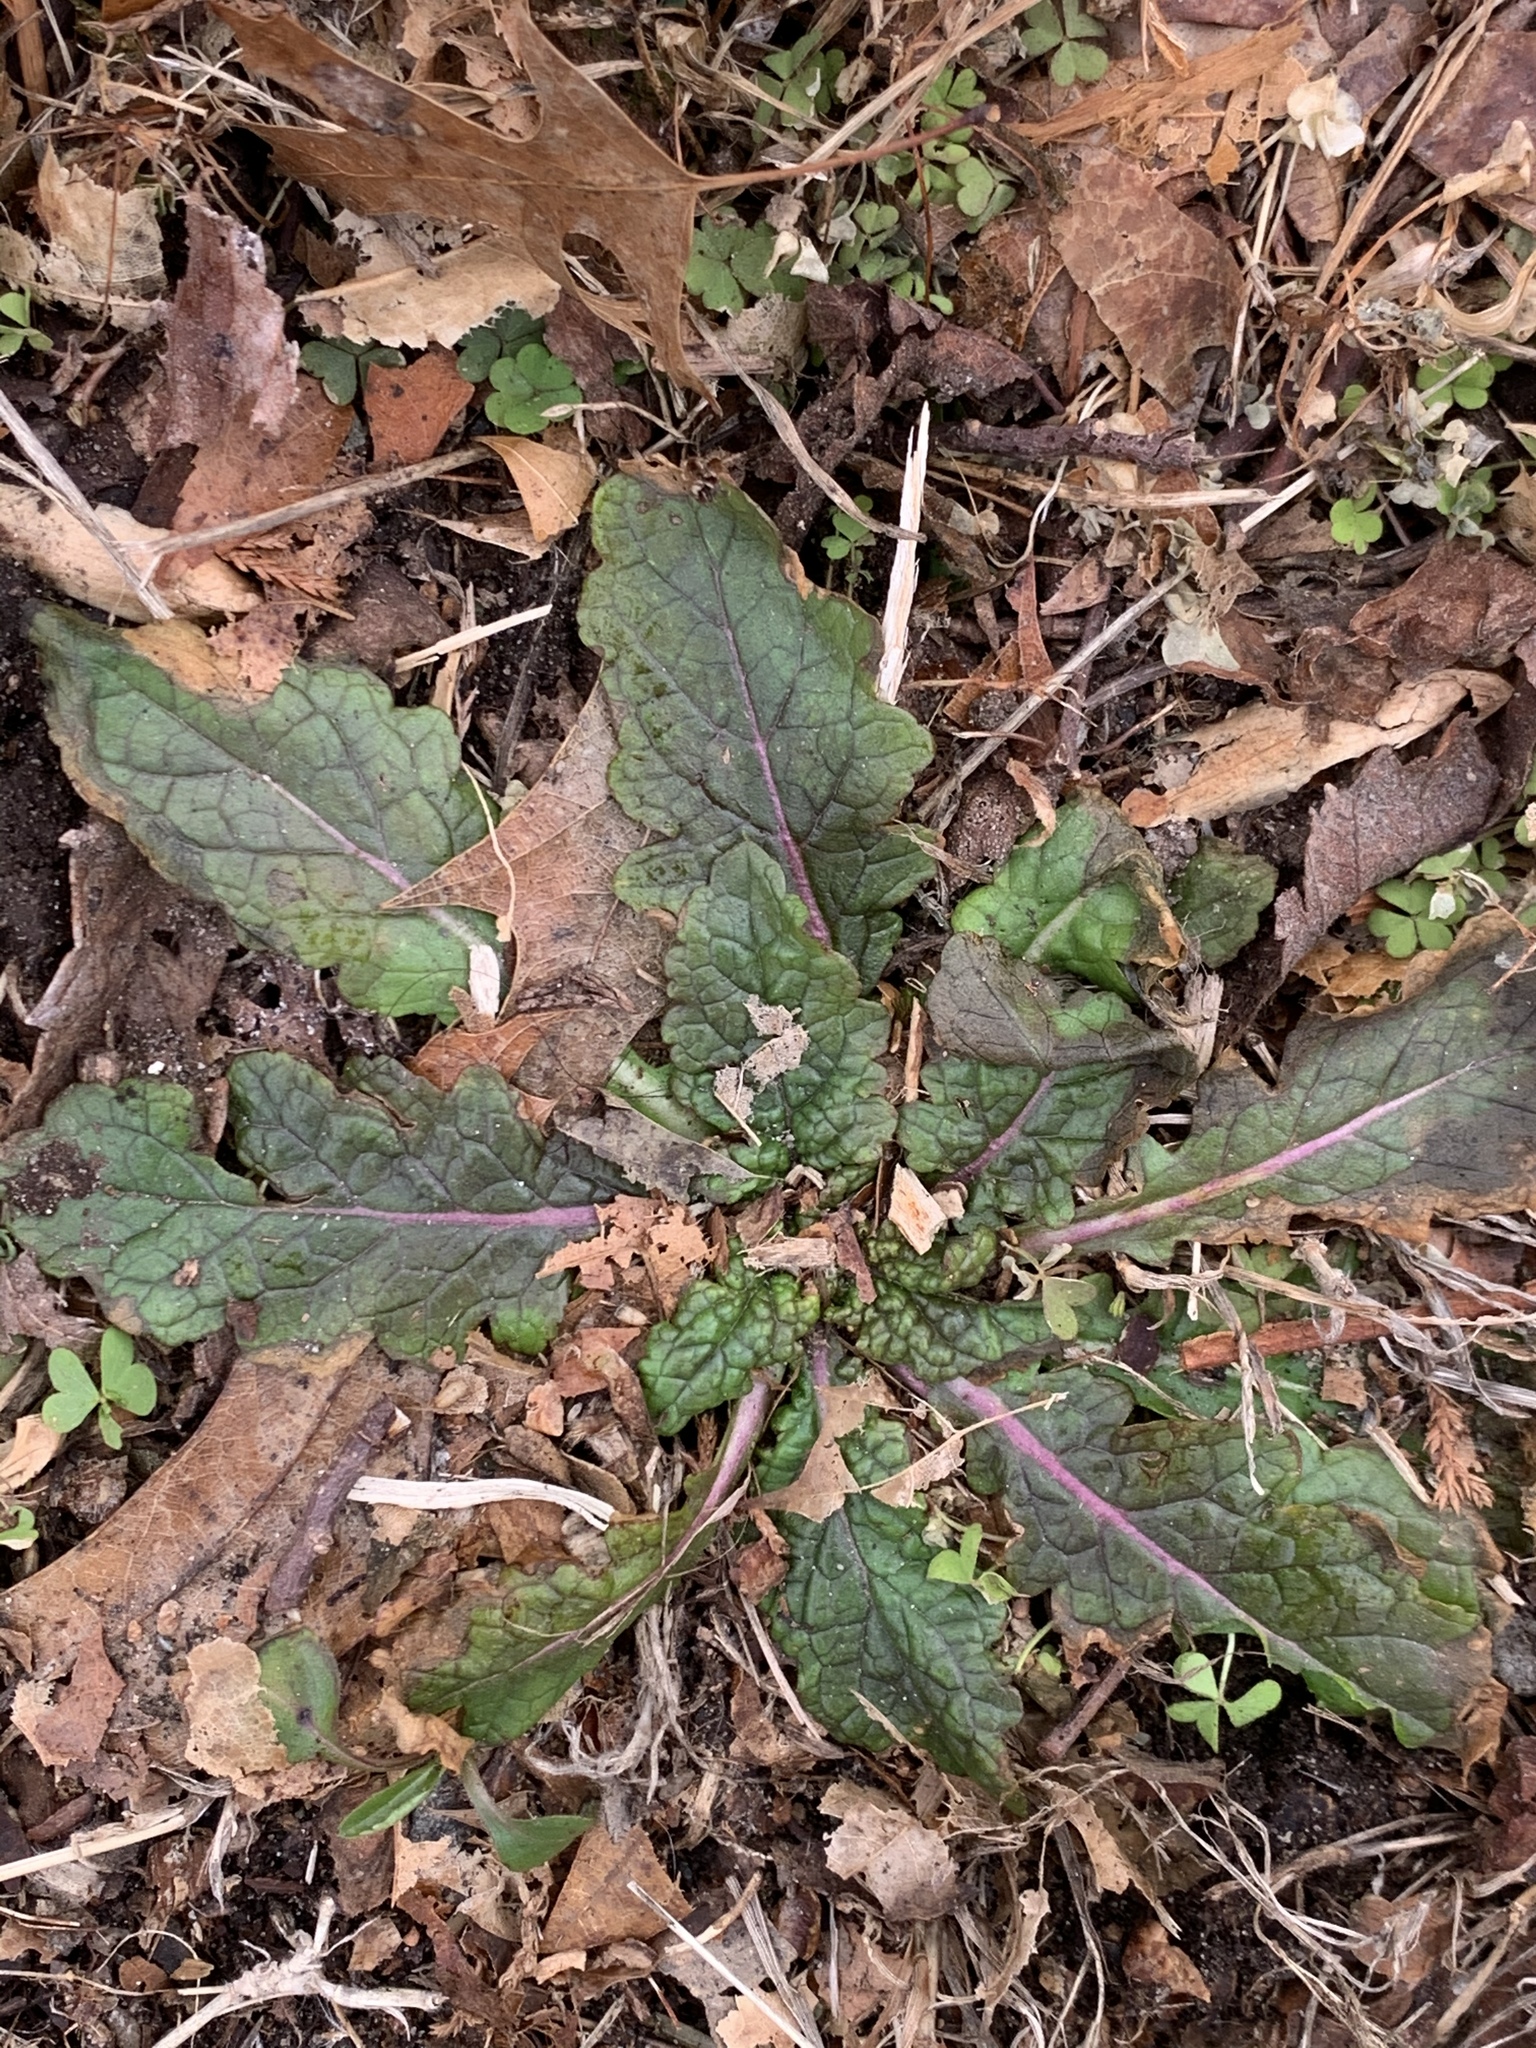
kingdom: Plantae
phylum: Tracheophyta
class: Magnoliopsida
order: Lamiales
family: Scrophulariaceae
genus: Verbascum
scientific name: Verbascum blattaria
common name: Moth mullein
